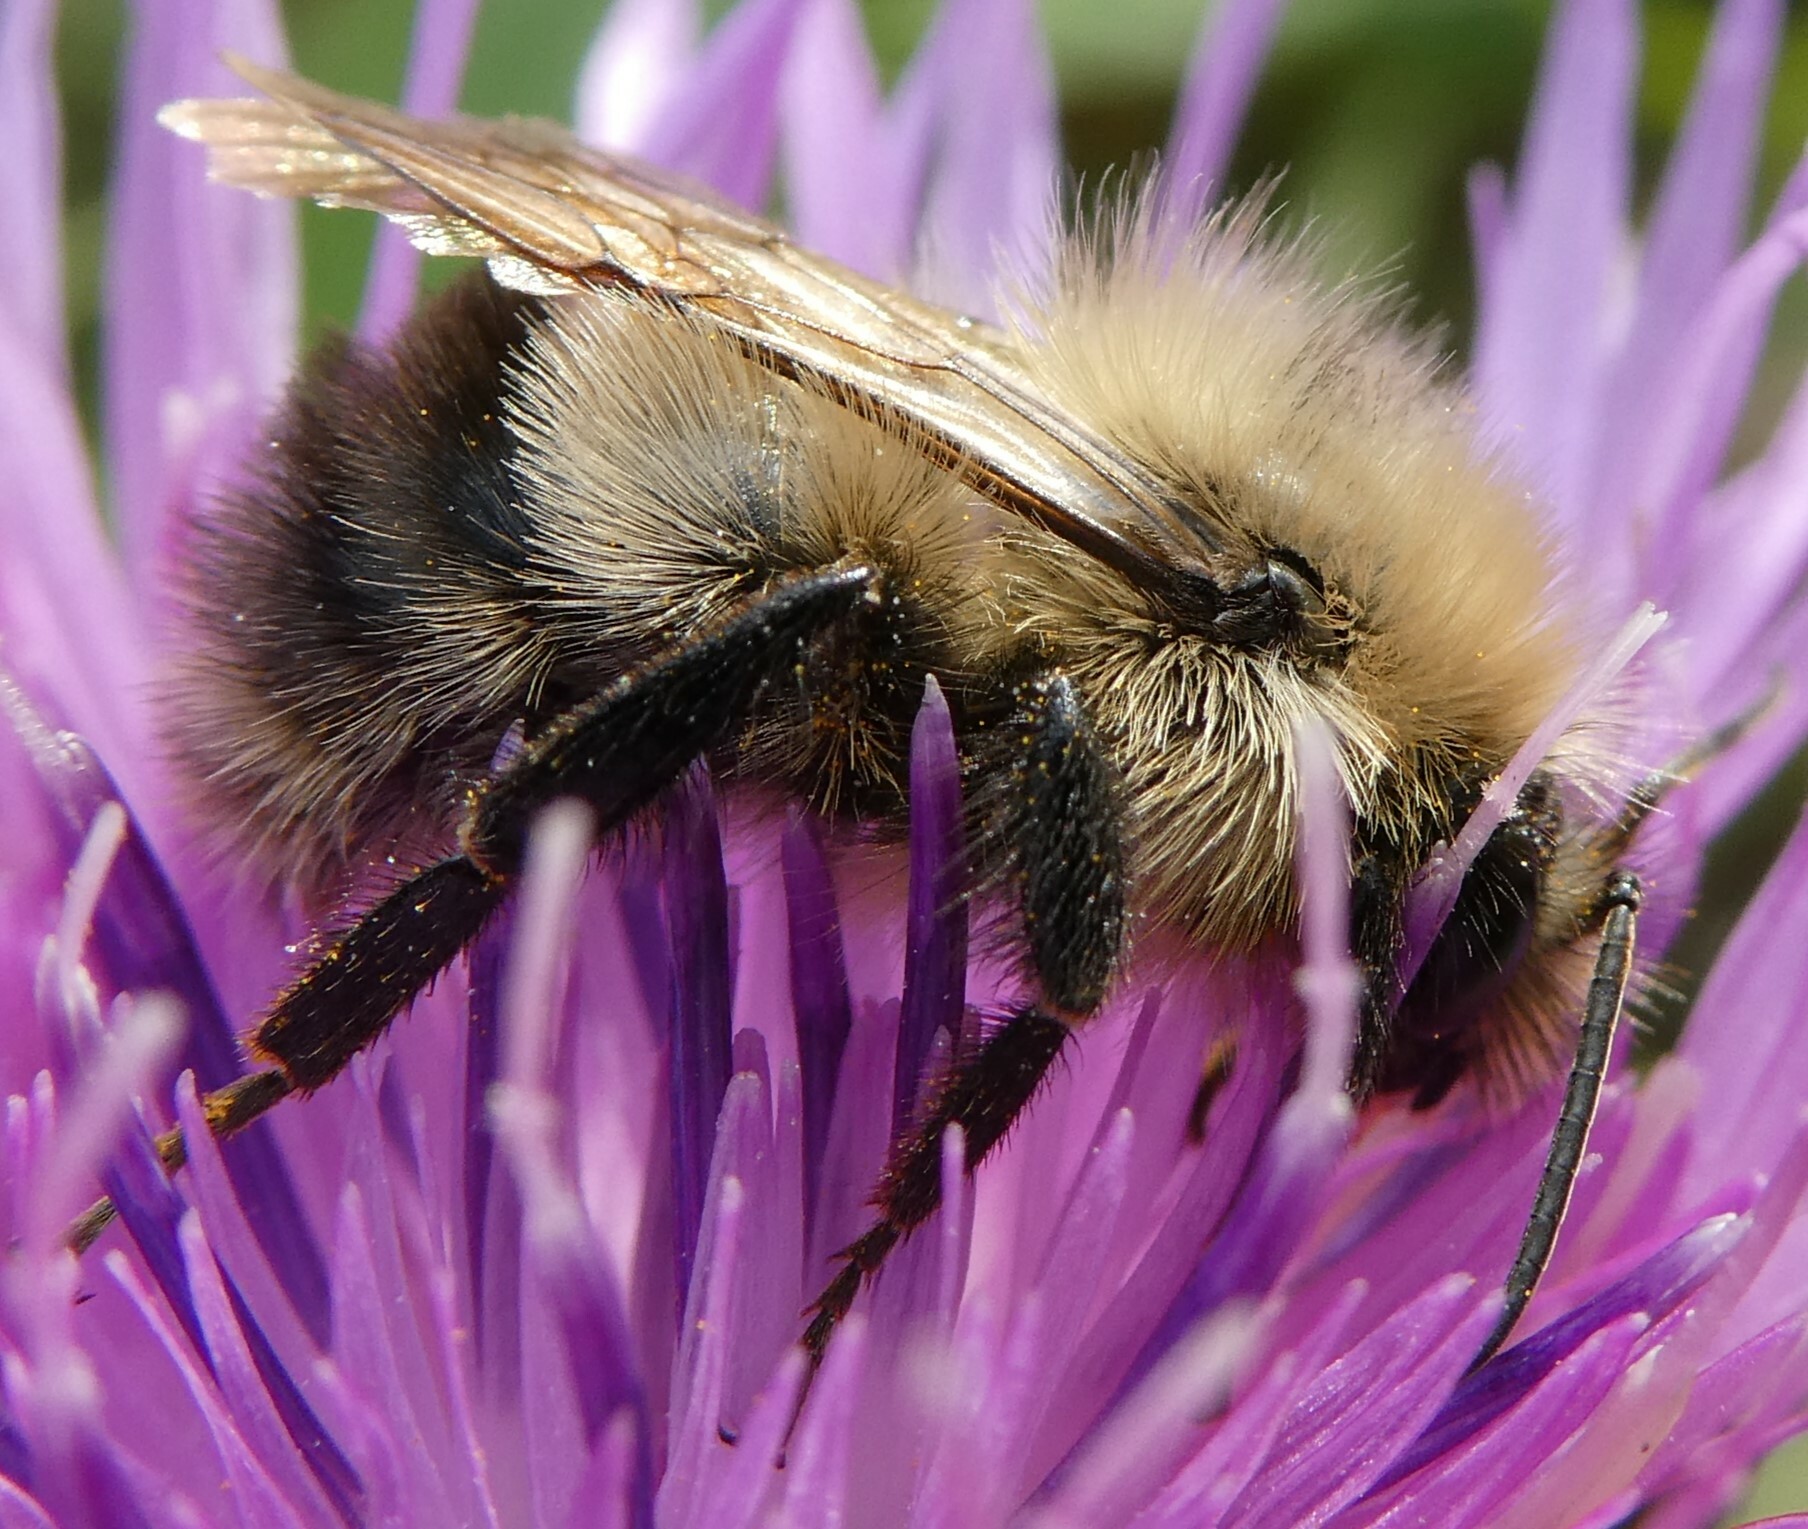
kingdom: Animalia
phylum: Arthropoda
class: Insecta
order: Hymenoptera
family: Apidae
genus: Bombus
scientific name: Bombus sandersoni
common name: Sanderson bumble bee
